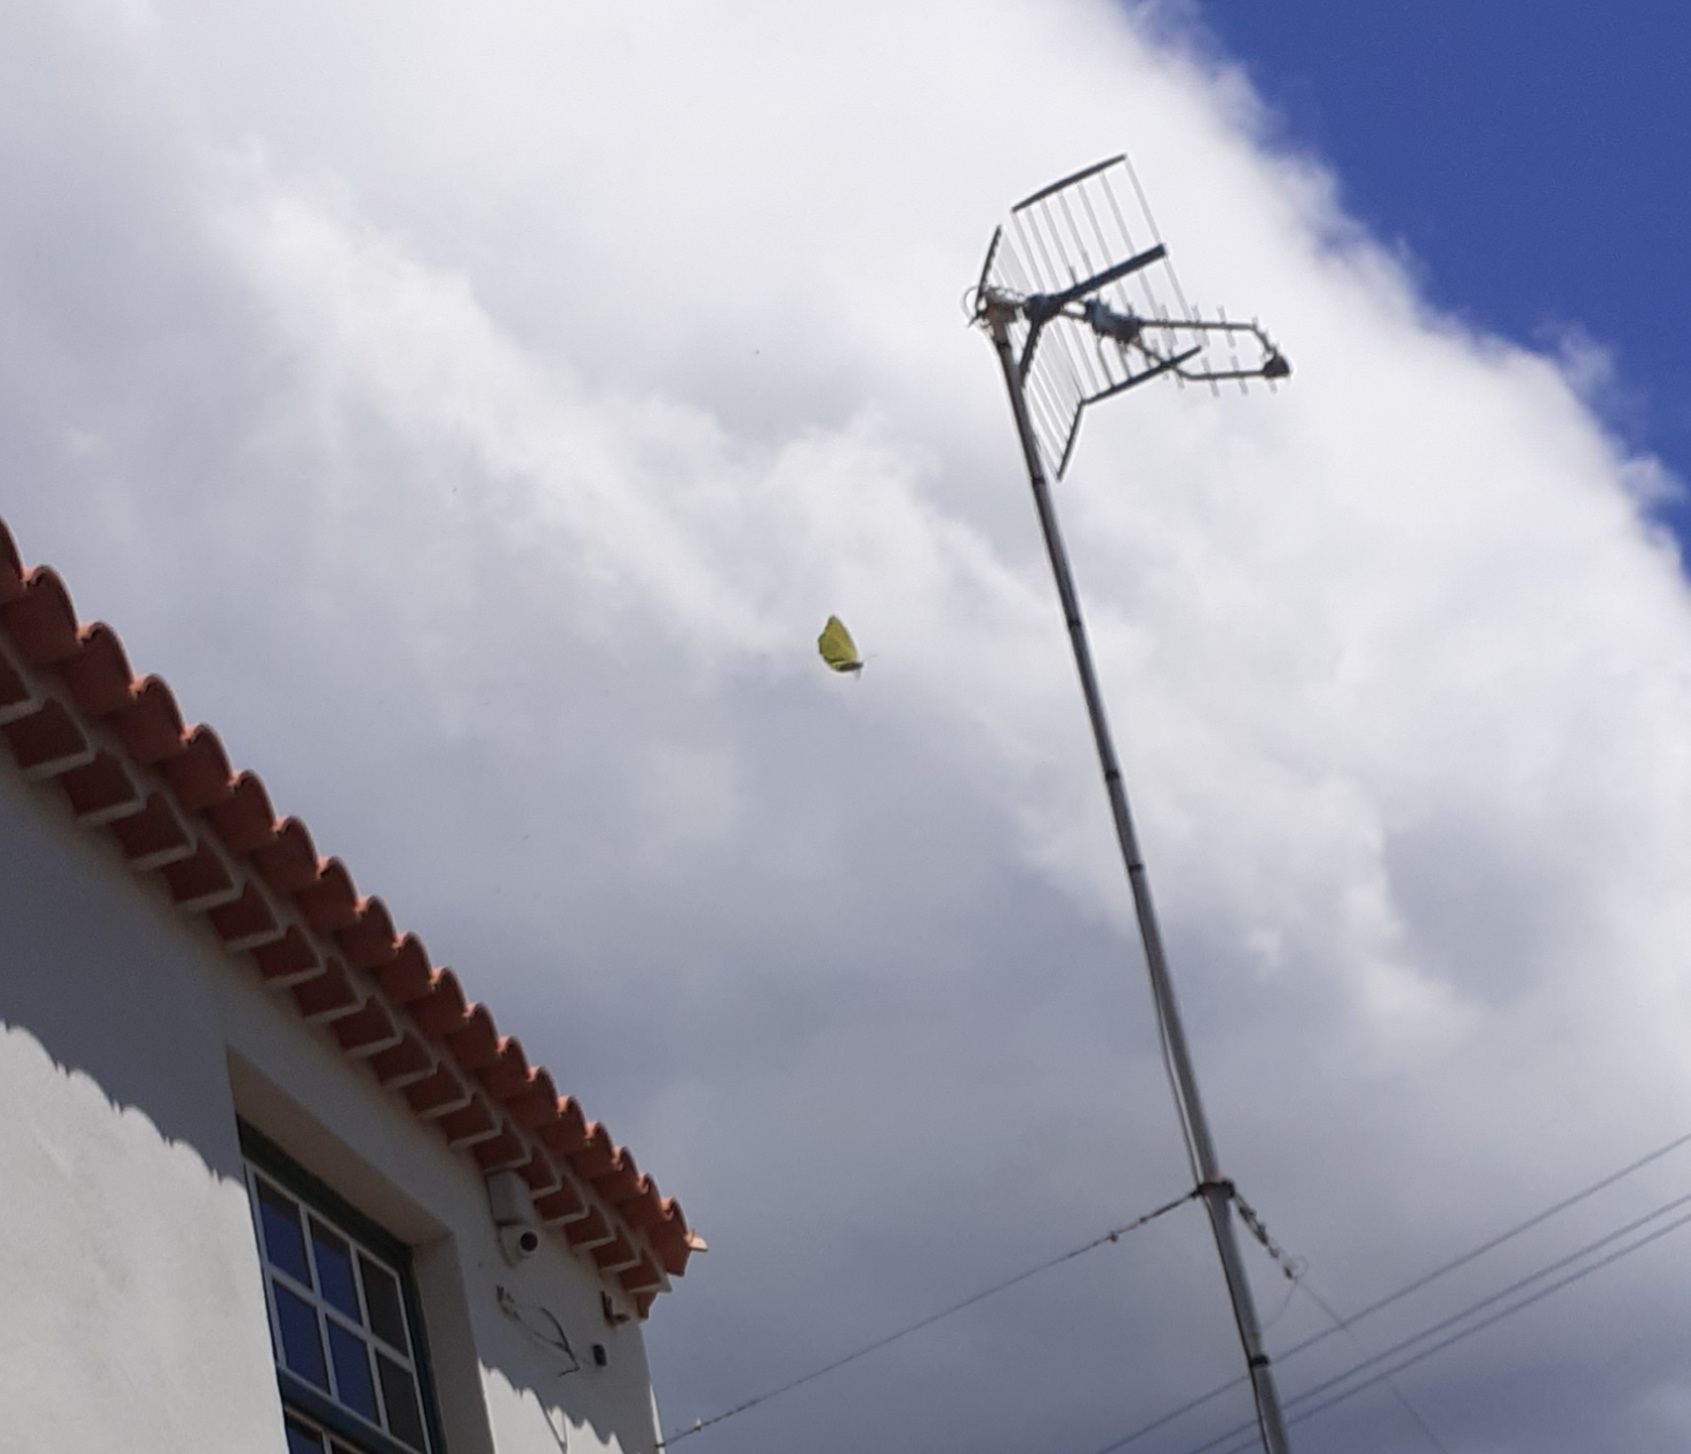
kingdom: Animalia
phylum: Arthropoda
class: Insecta
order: Lepidoptera
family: Pieridae
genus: Gonepteryx
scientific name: Gonepteryx cleobule
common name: Canary brimstone
